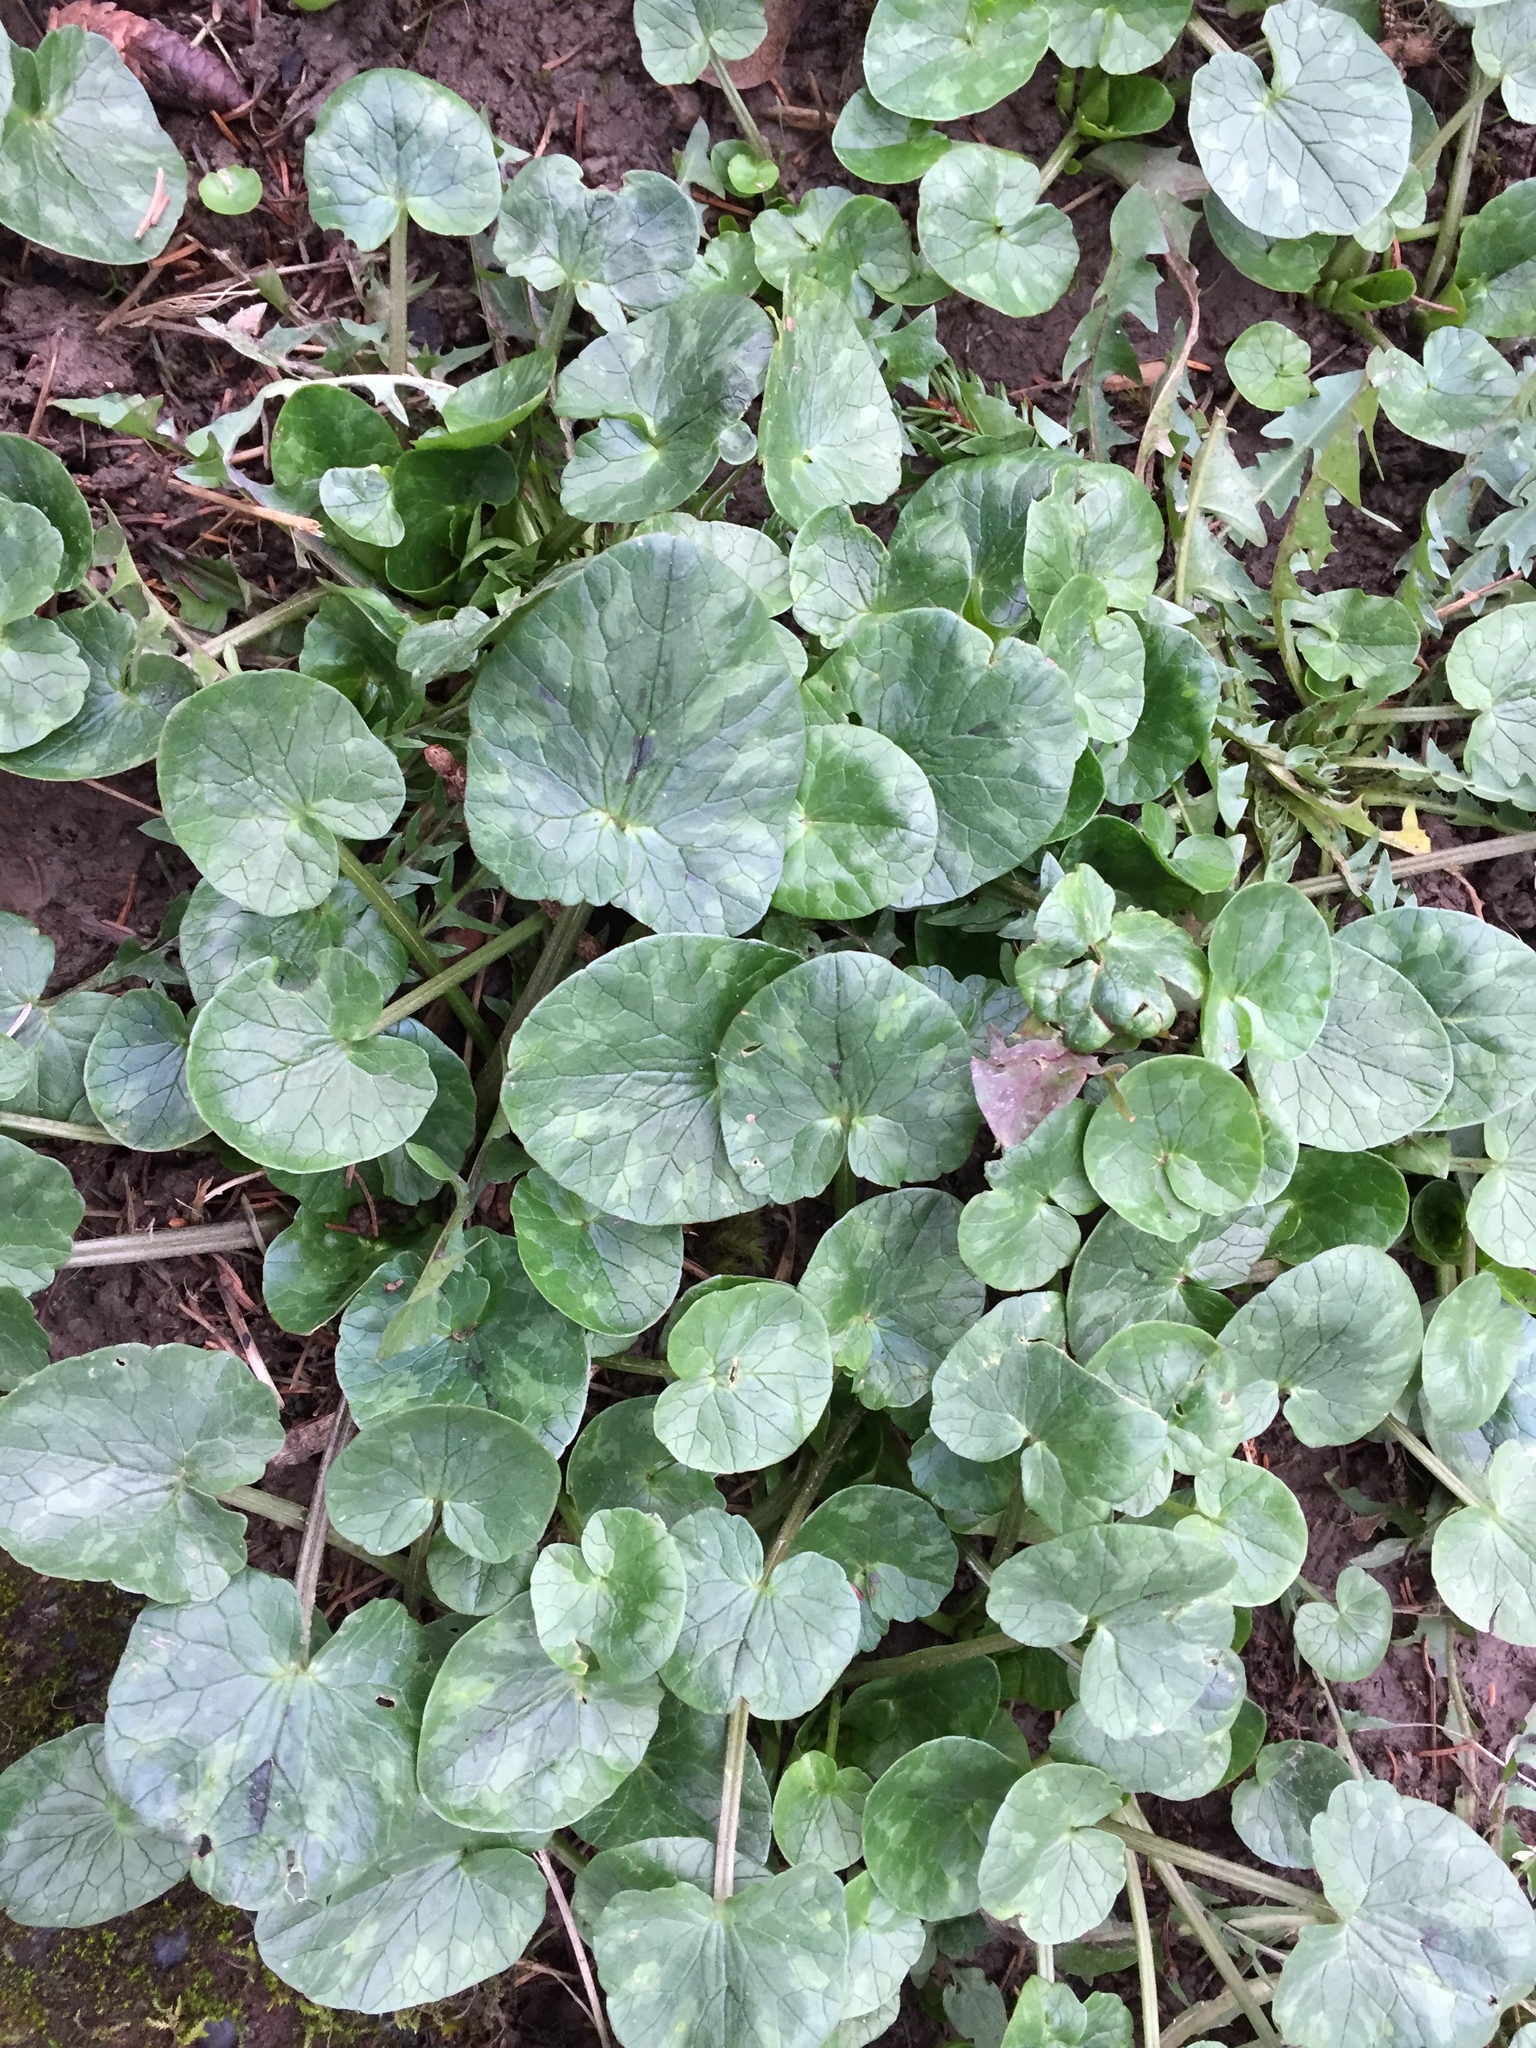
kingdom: Plantae
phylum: Tracheophyta
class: Magnoliopsida
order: Ranunculales
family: Ranunculaceae
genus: Ficaria
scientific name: Ficaria verna
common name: Lesser celandine
